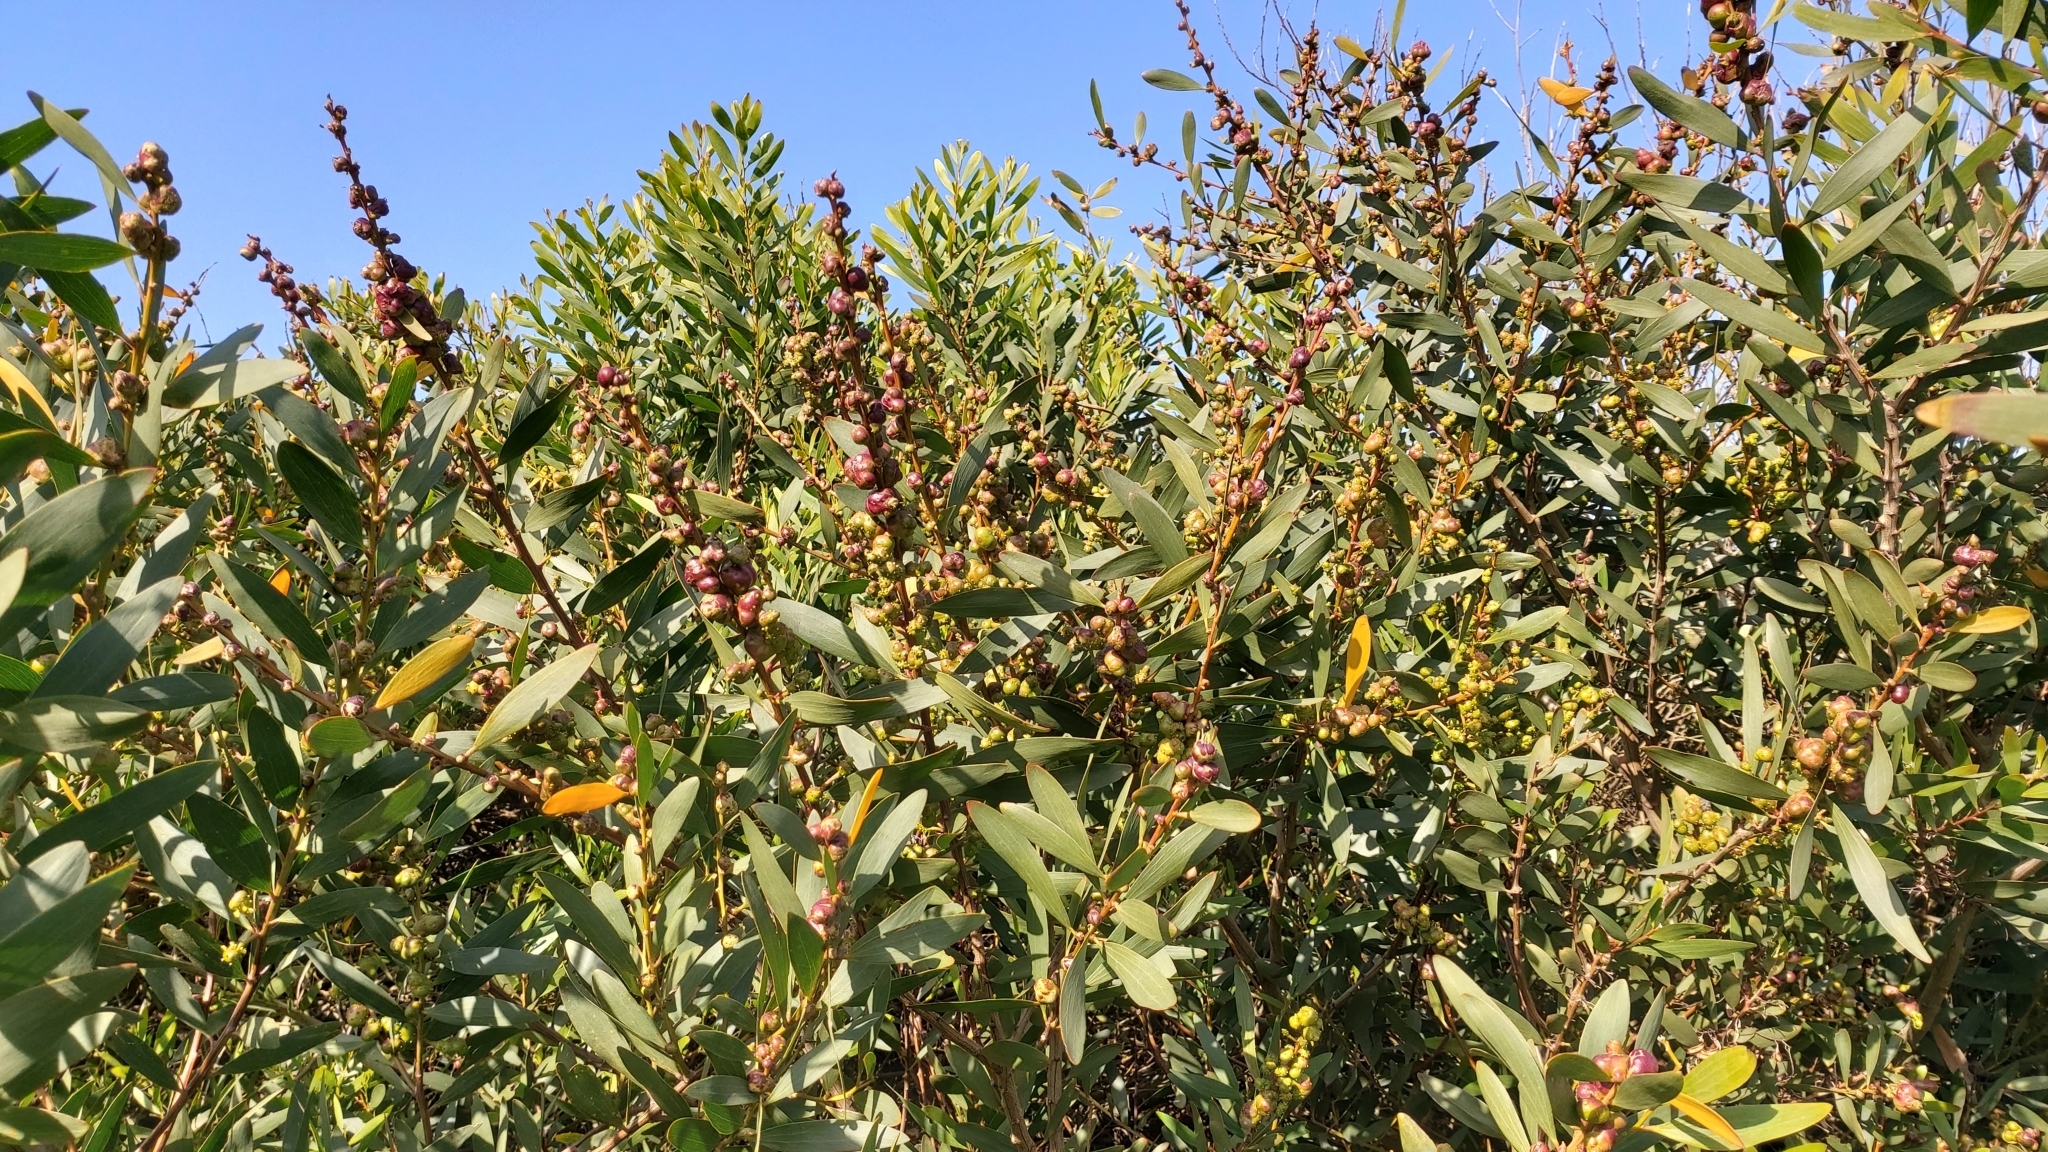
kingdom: Animalia
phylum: Arthropoda
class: Insecta
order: Hymenoptera
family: Pteromalidae
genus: Trichilogaster
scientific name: Trichilogaster acaciaelongifoliae
